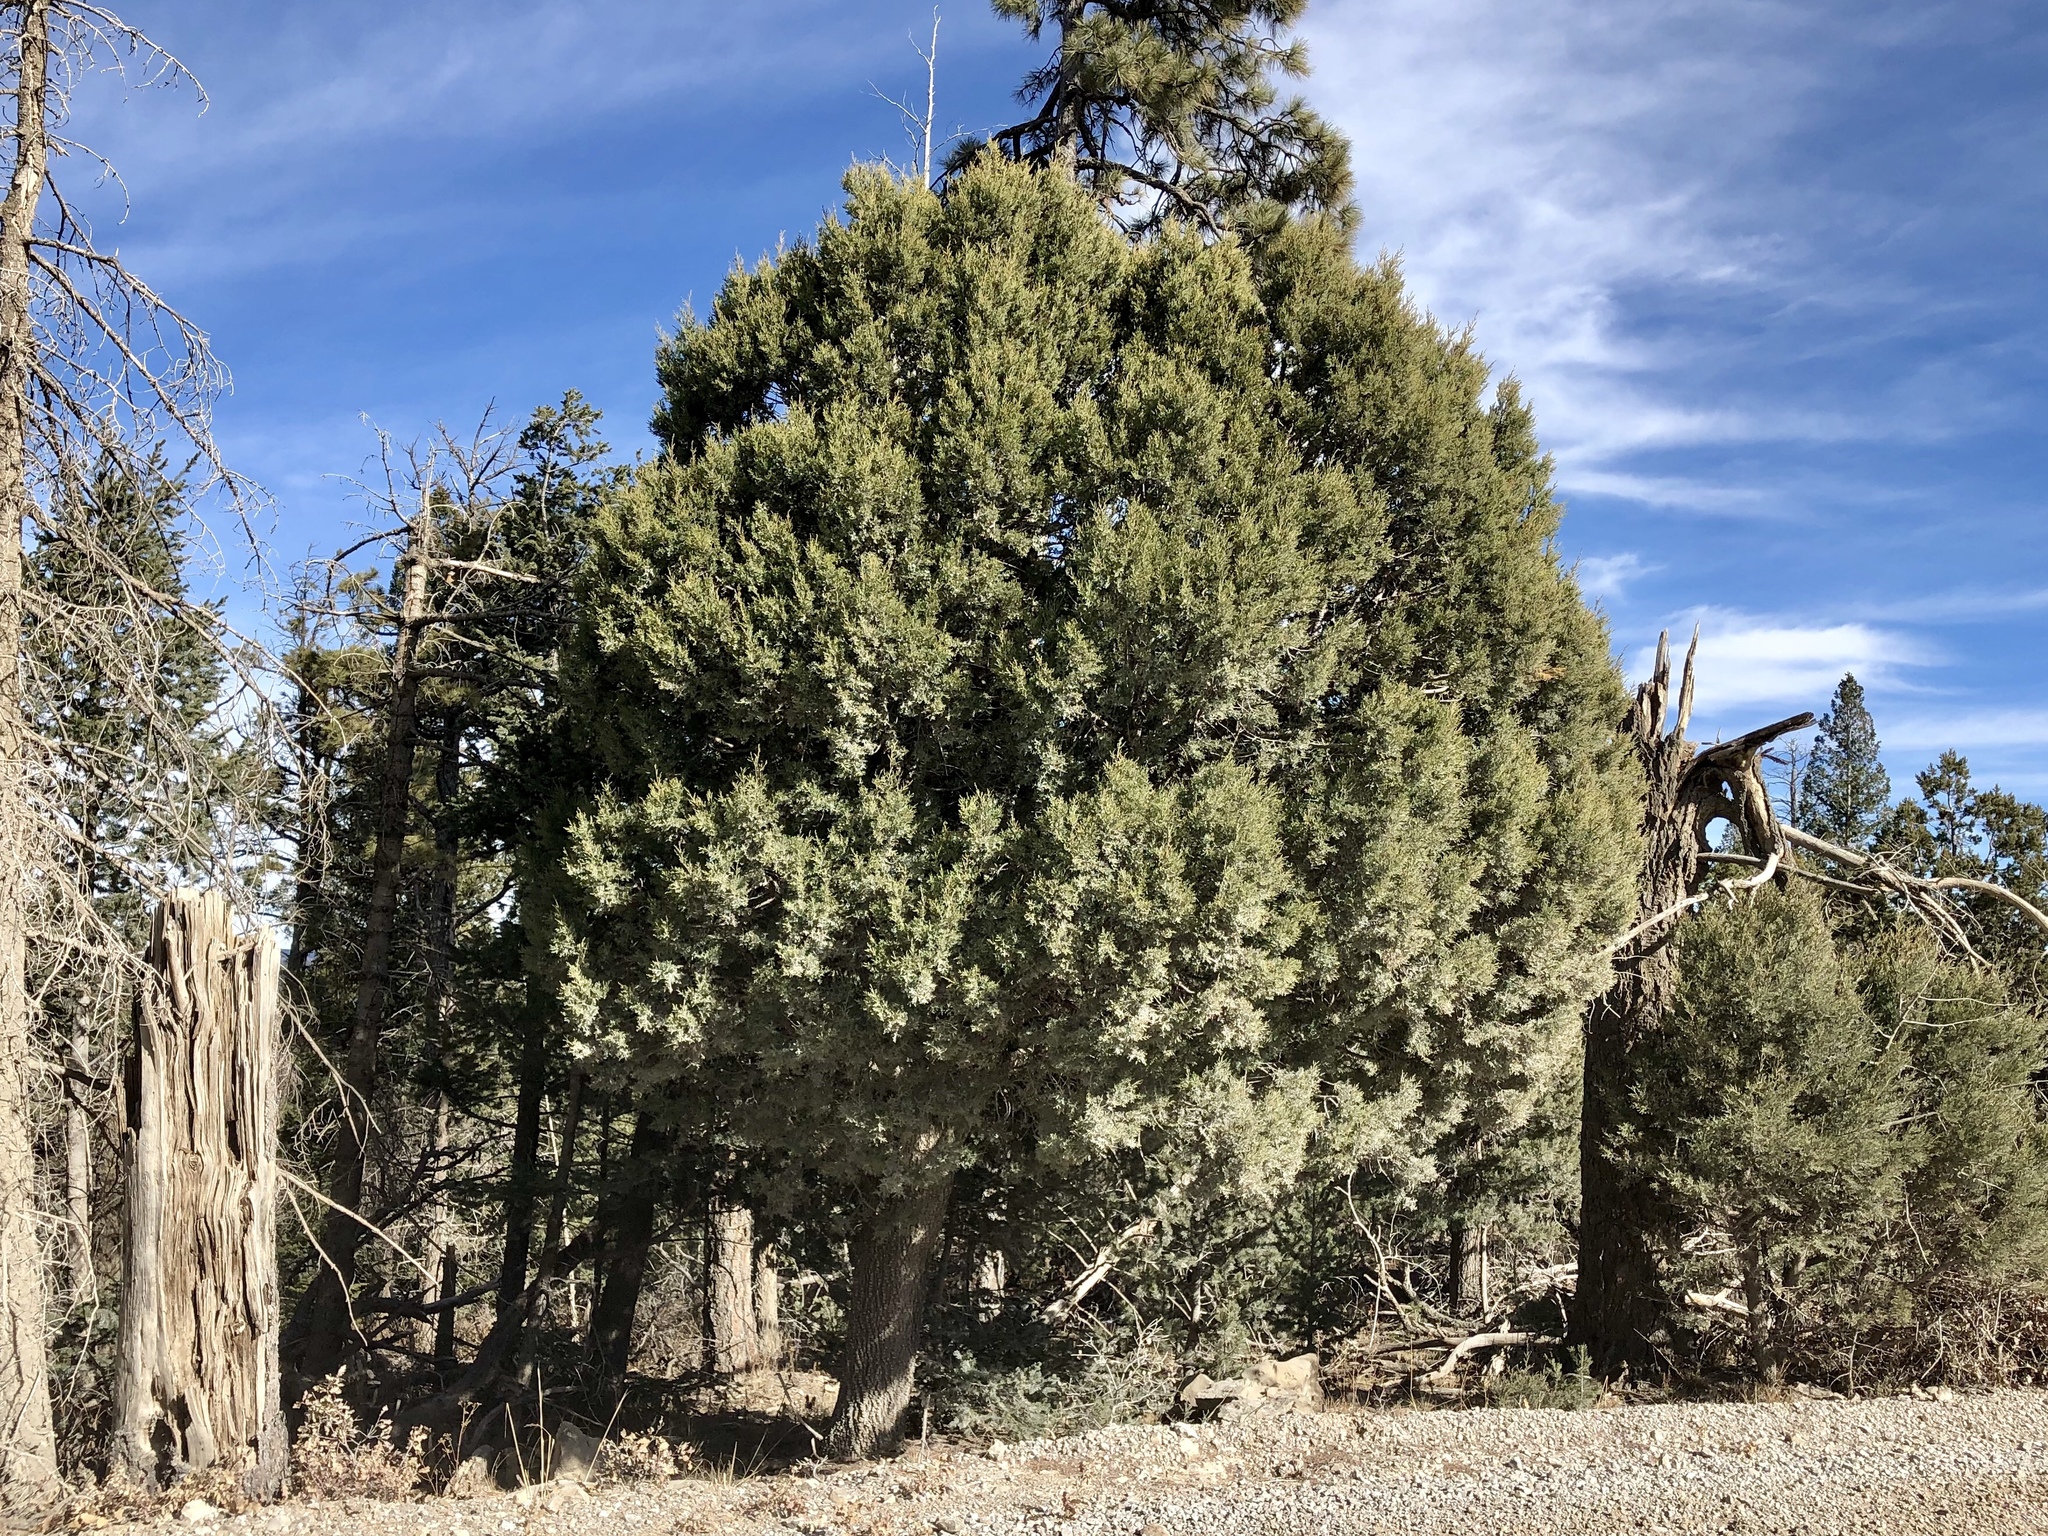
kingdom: Plantae
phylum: Tracheophyta
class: Pinopsida
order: Pinales
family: Cupressaceae
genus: Juniperus
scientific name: Juniperus deppeana
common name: Alligator juniper
